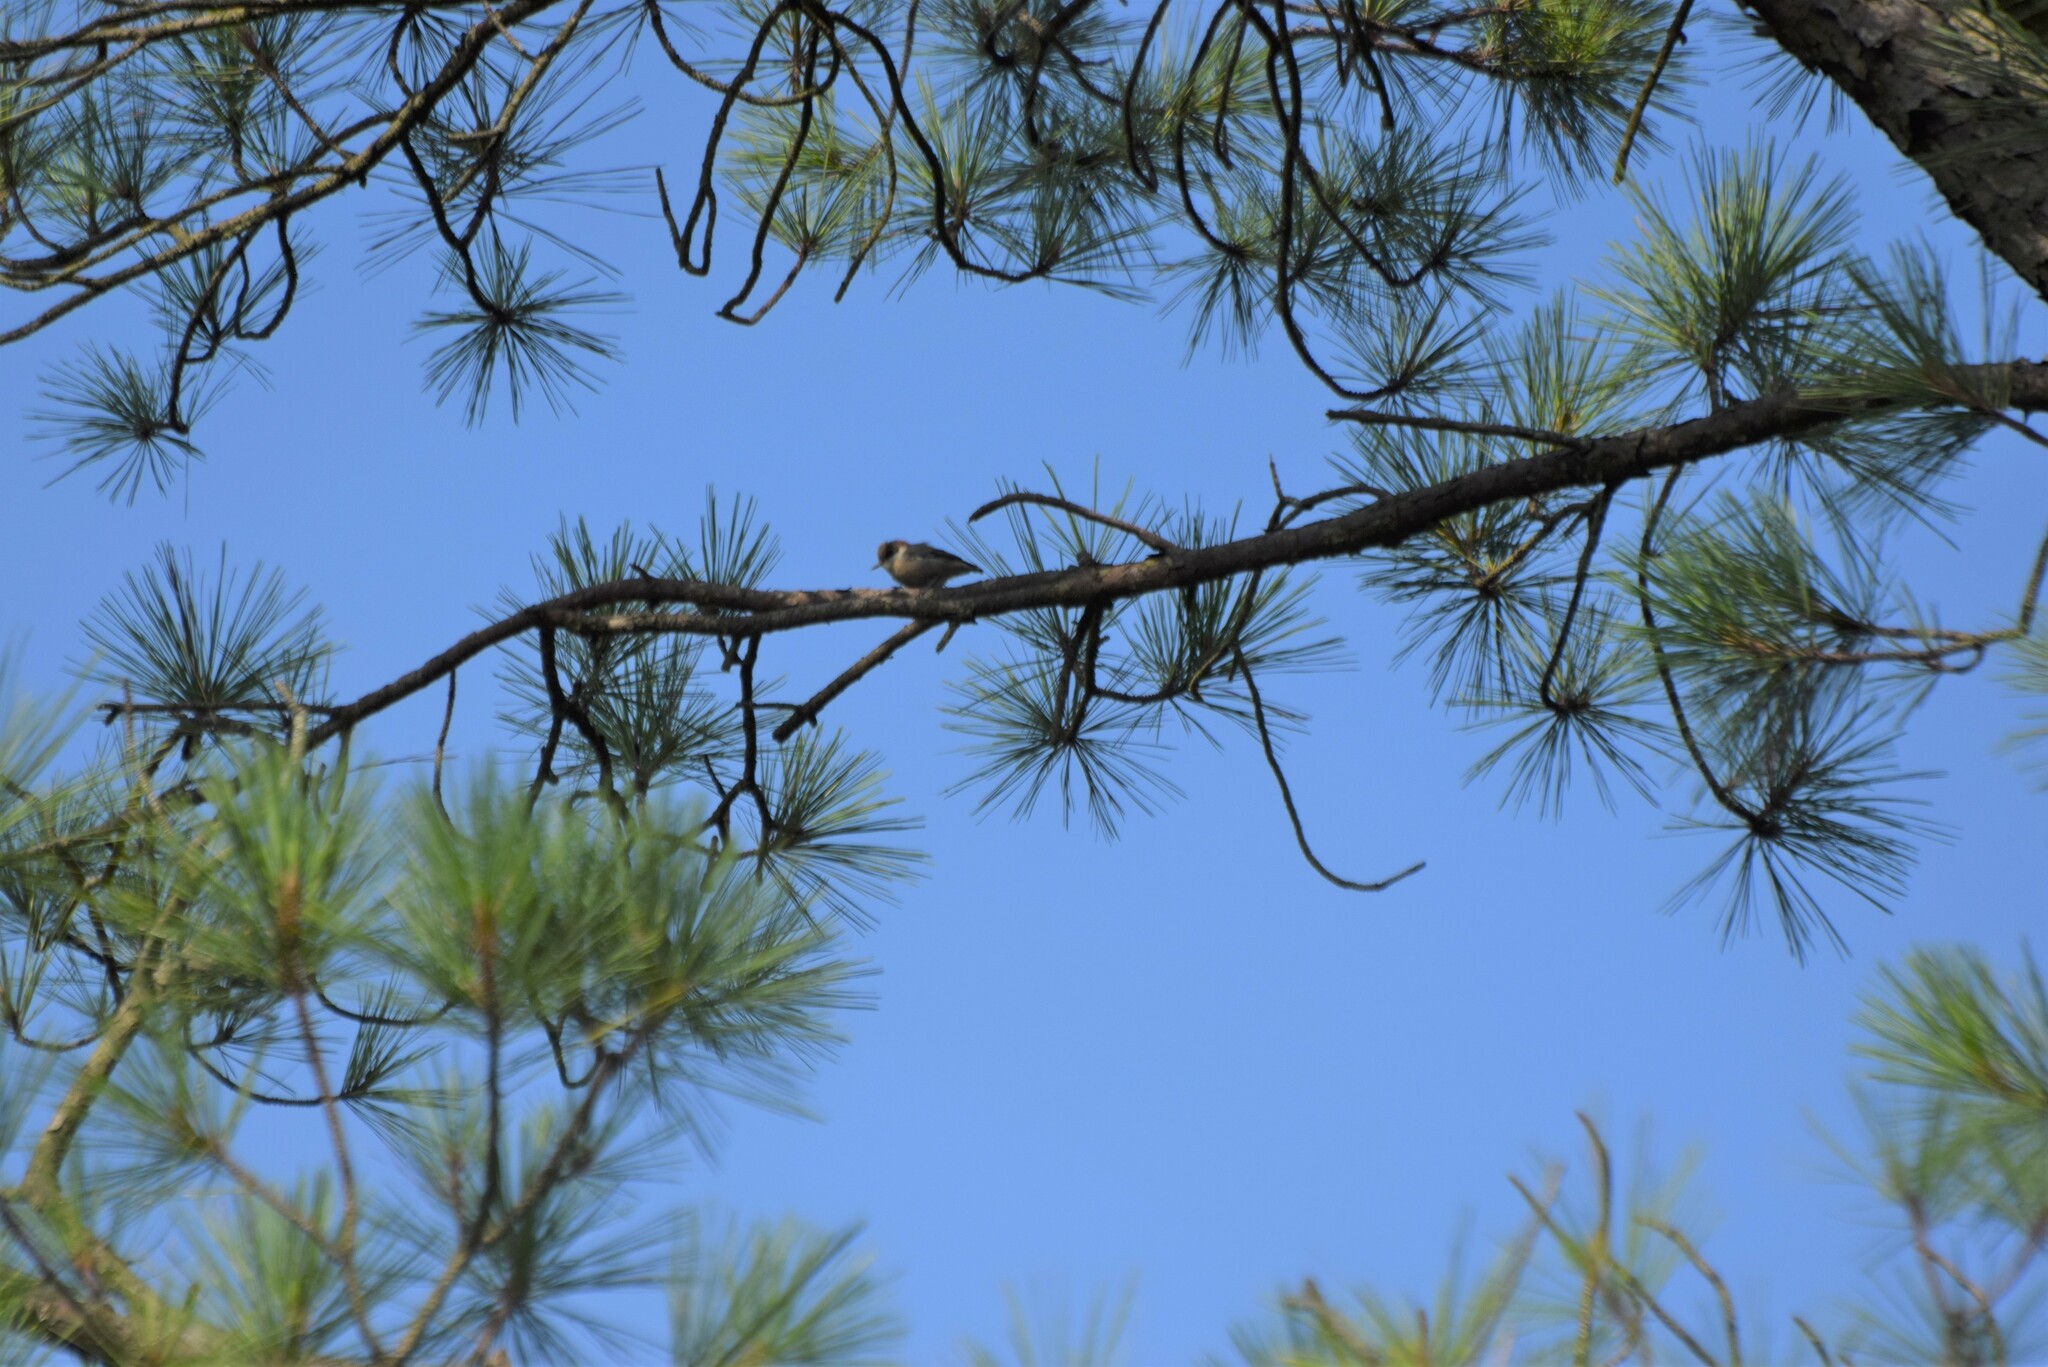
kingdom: Animalia
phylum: Chordata
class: Aves
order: Passeriformes
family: Sittidae
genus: Sitta
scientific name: Sitta pusilla
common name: Brown-headed nuthatch
